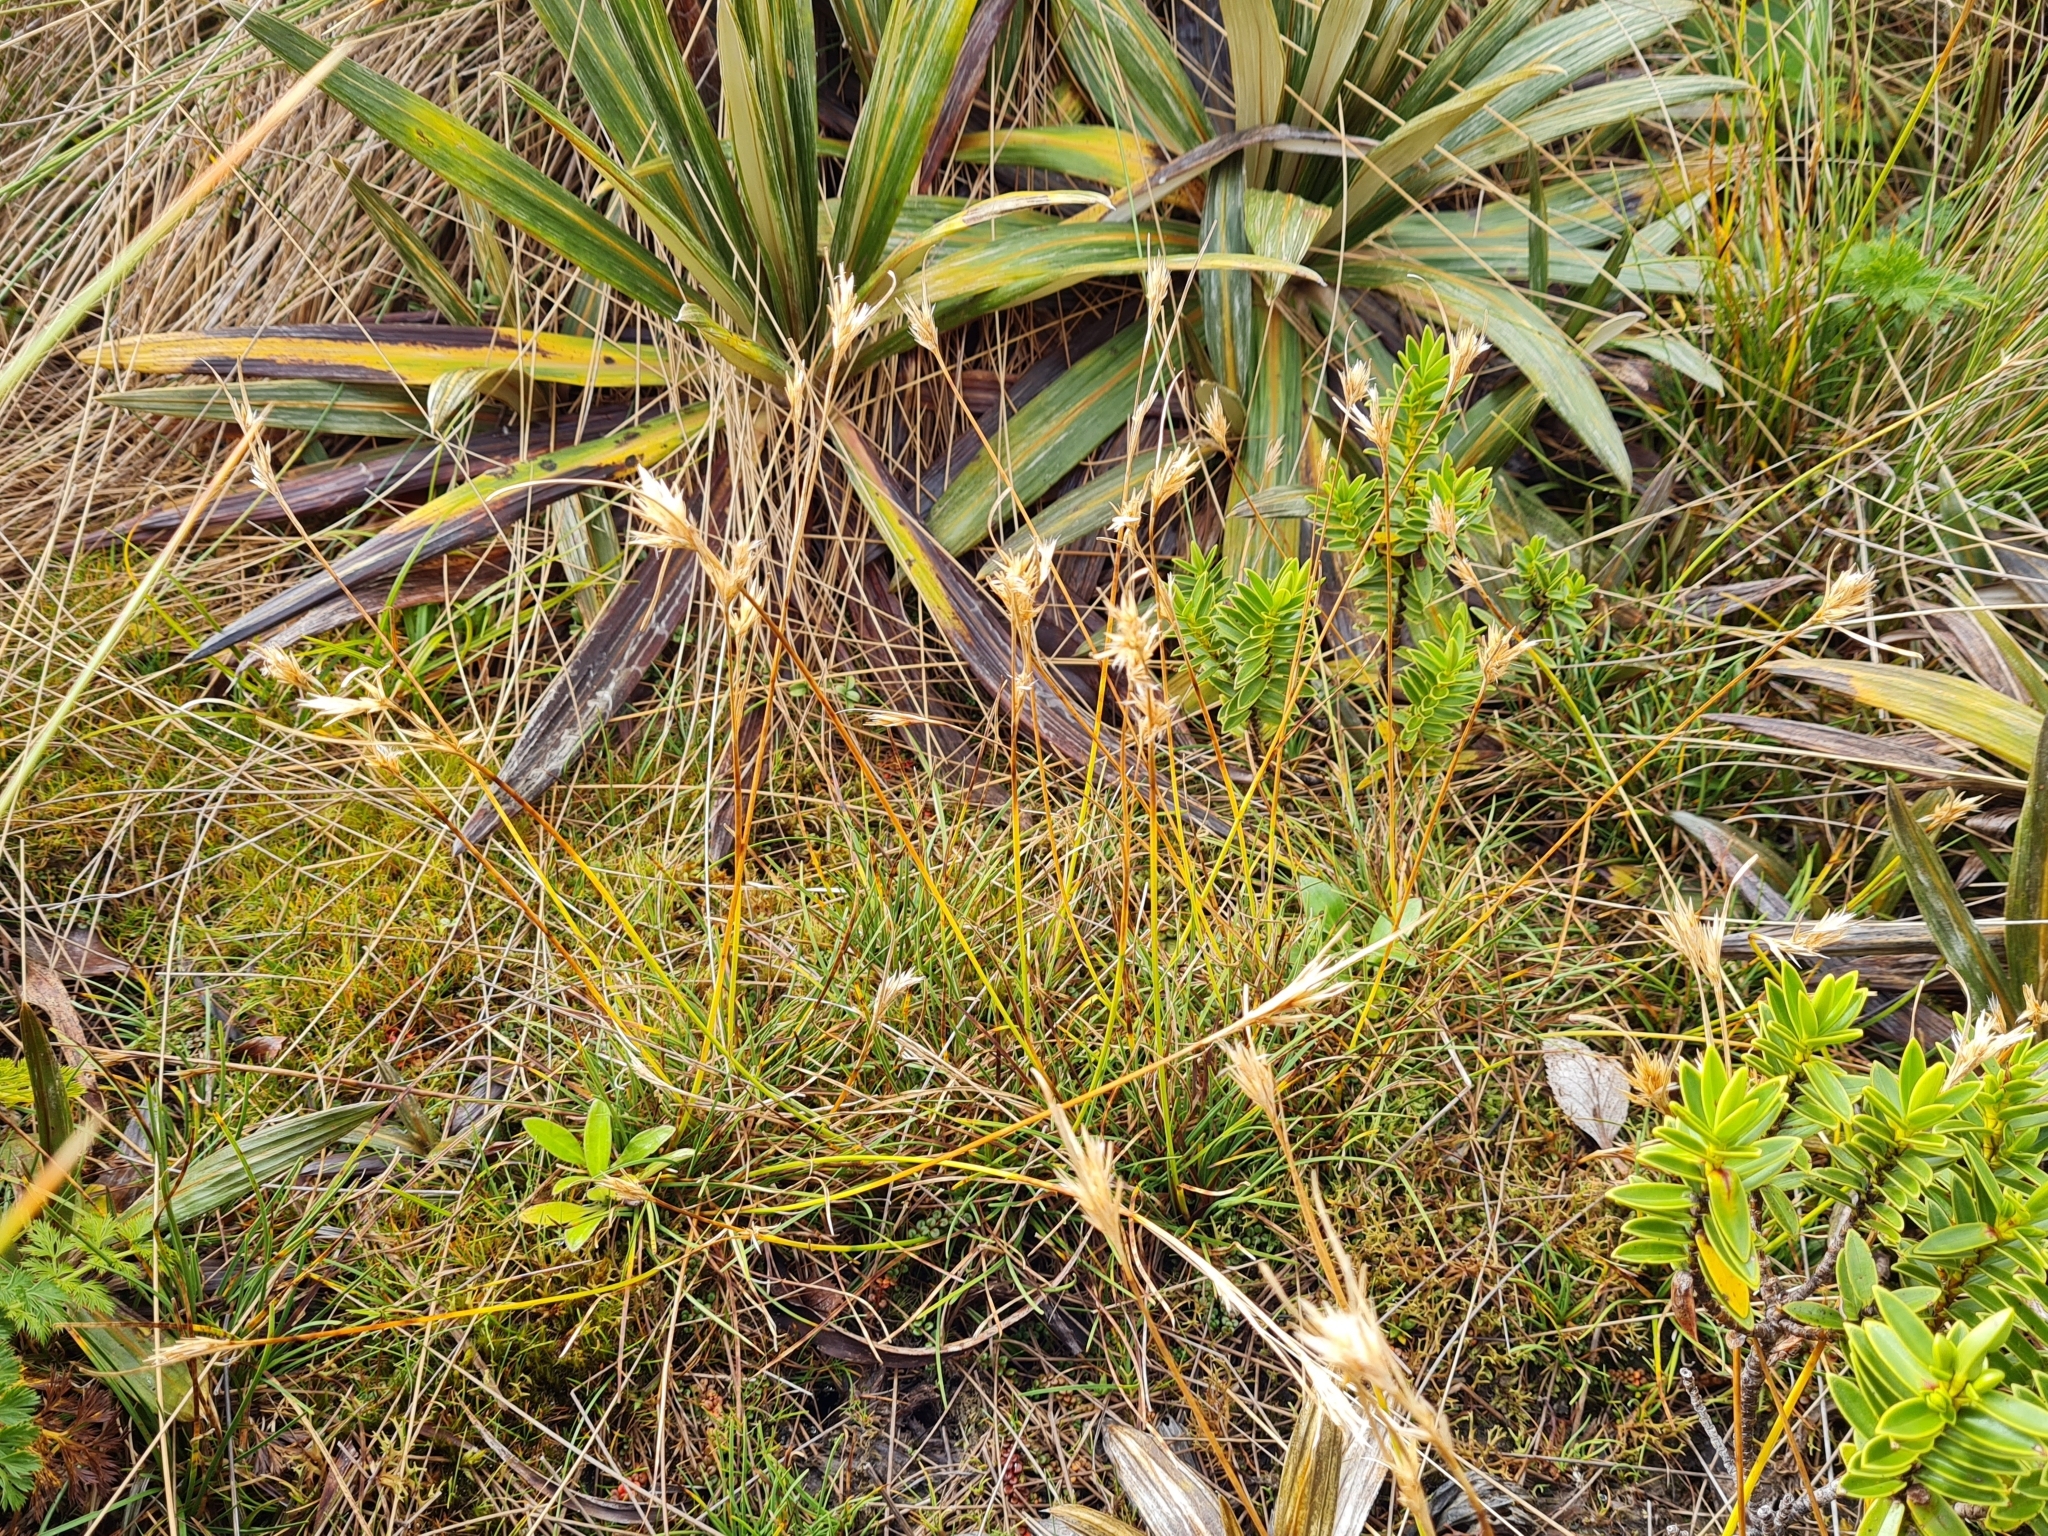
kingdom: Plantae
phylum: Tracheophyta
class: Liliopsida
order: Poales
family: Cyperaceae
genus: Carpha
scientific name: Carpha alpina
